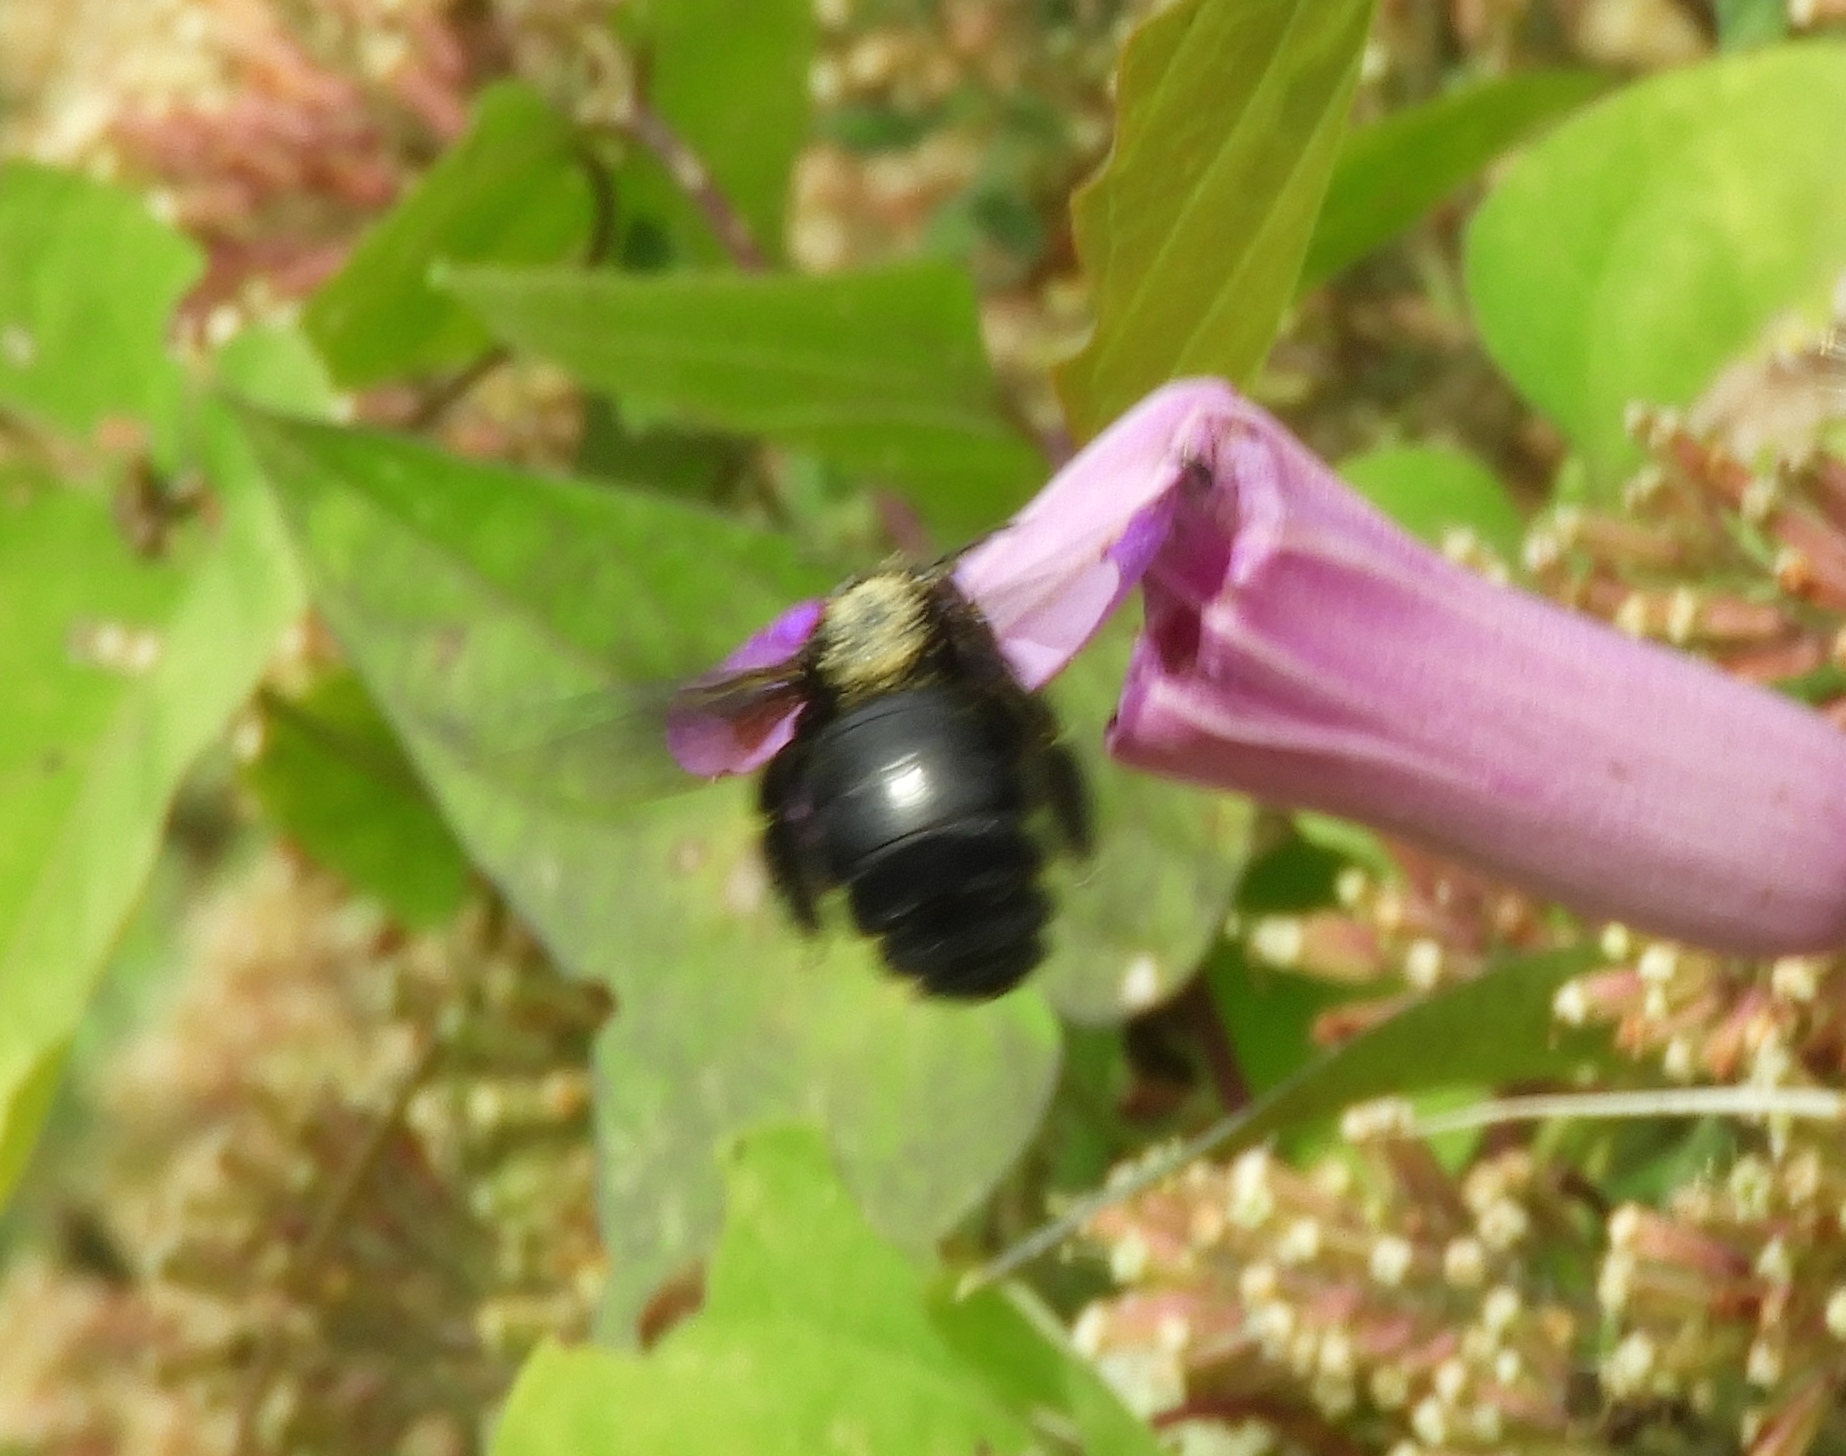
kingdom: Animalia
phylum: Arthropoda
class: Insecta
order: Hymenoptera
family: Apidae
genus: Xylocopa
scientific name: Xylocopa
